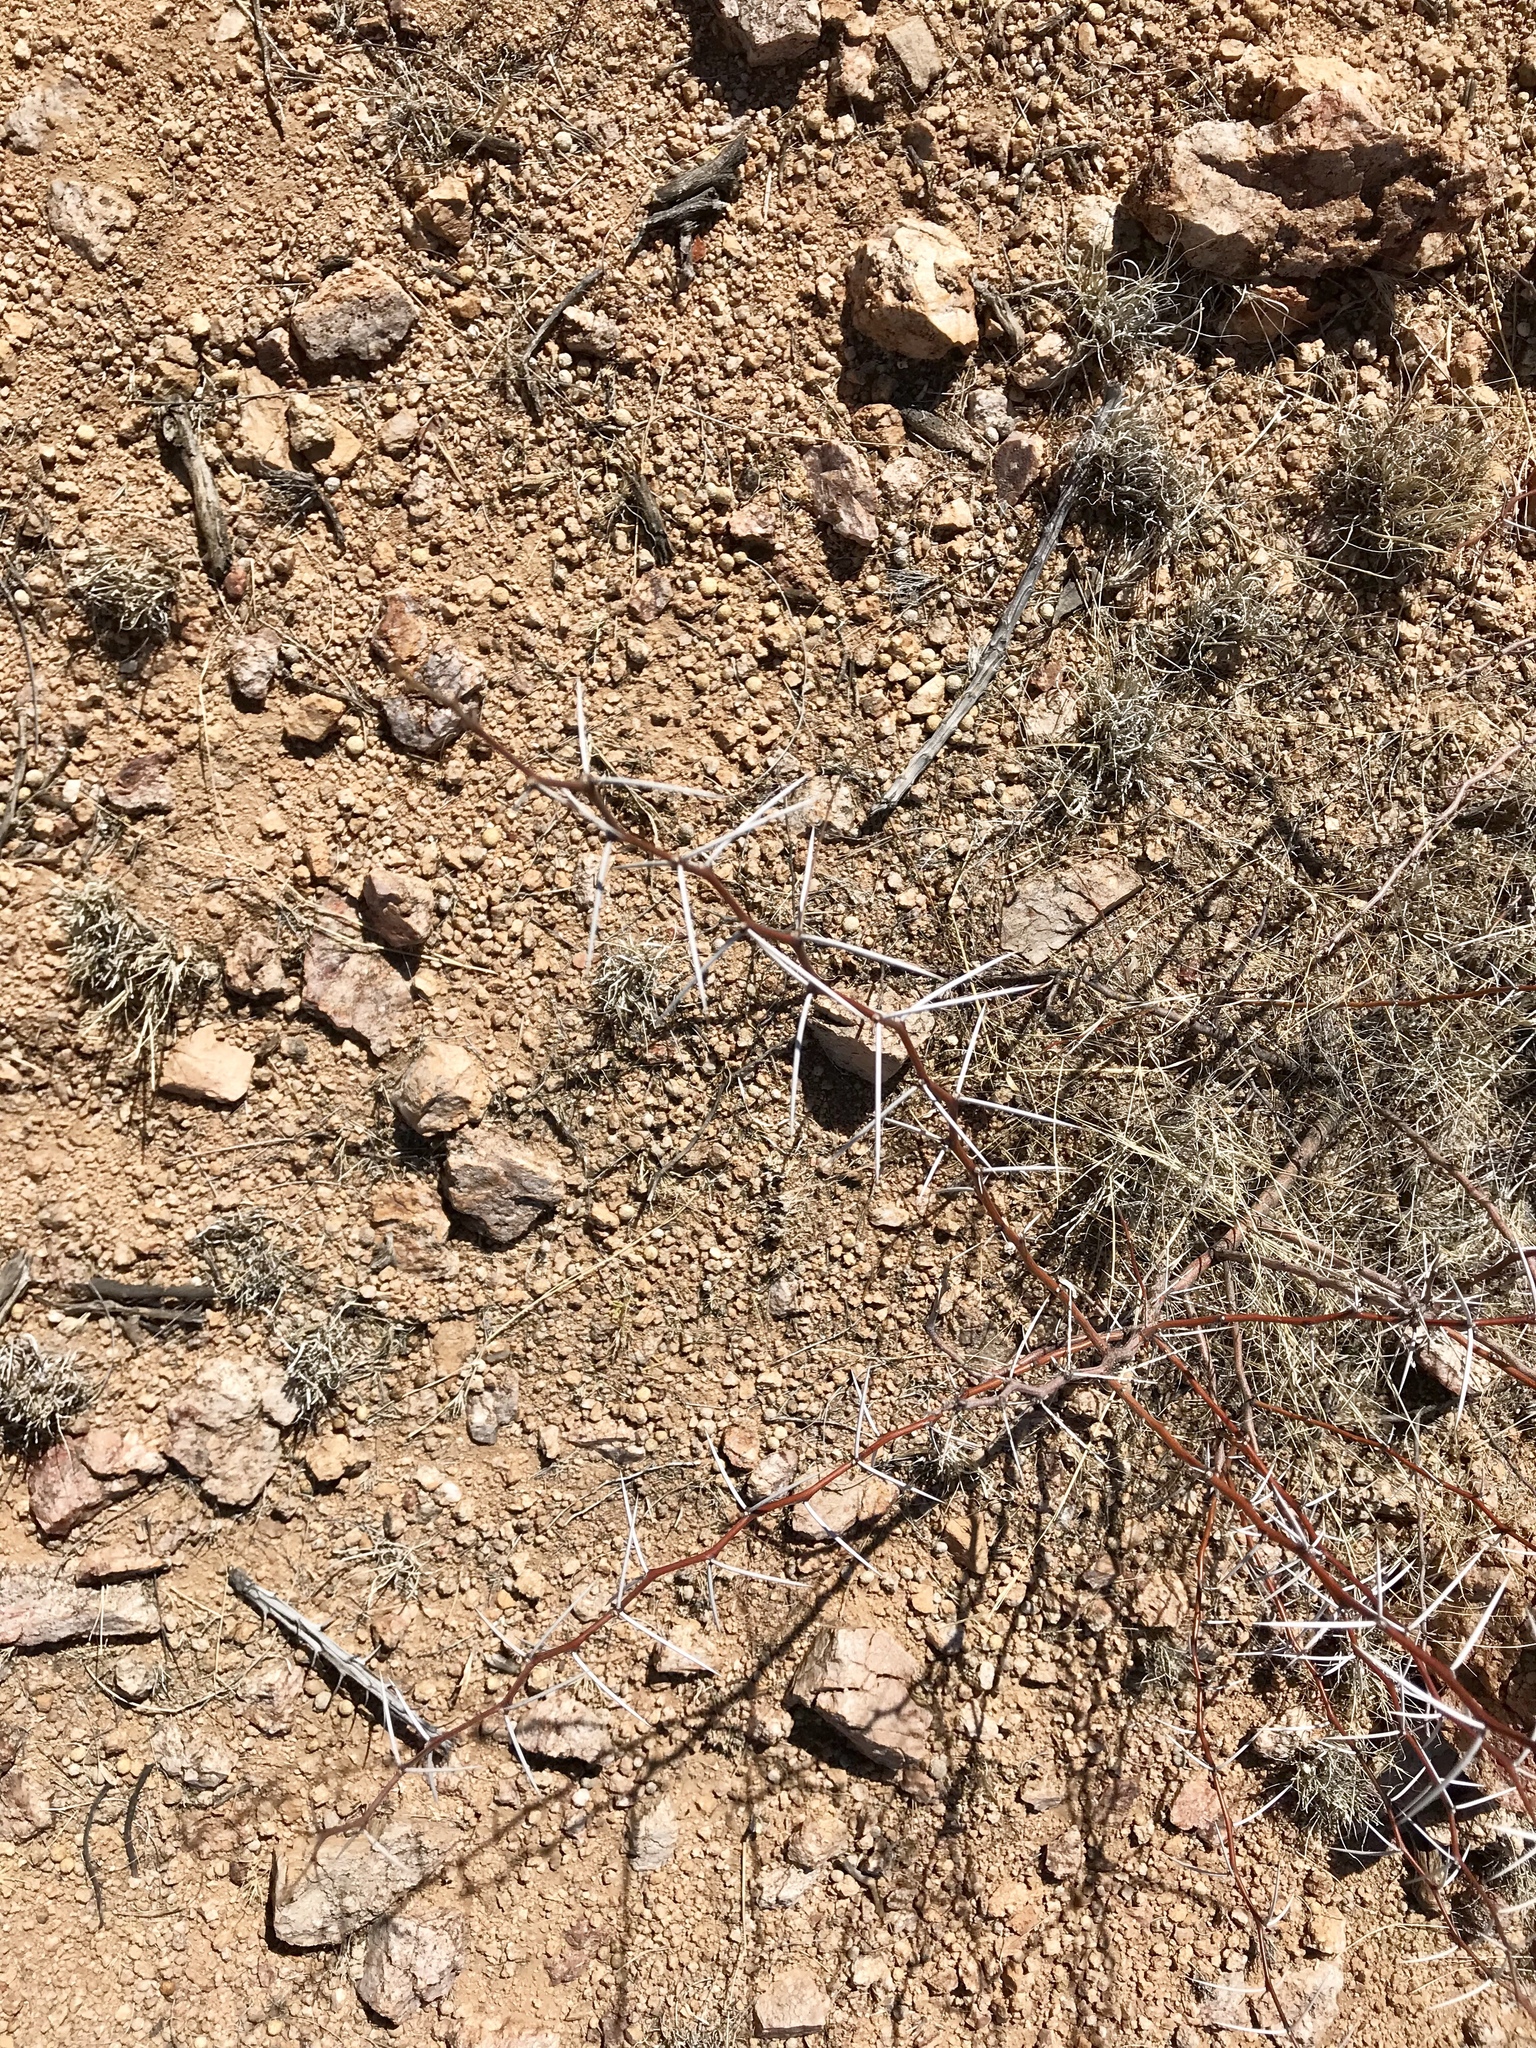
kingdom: Plantae
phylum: Tracheophyta
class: Magnoliopsida
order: Fabales
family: Fabaceae
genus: Vachellia
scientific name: Vachellia constricta
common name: Mescat acacia
